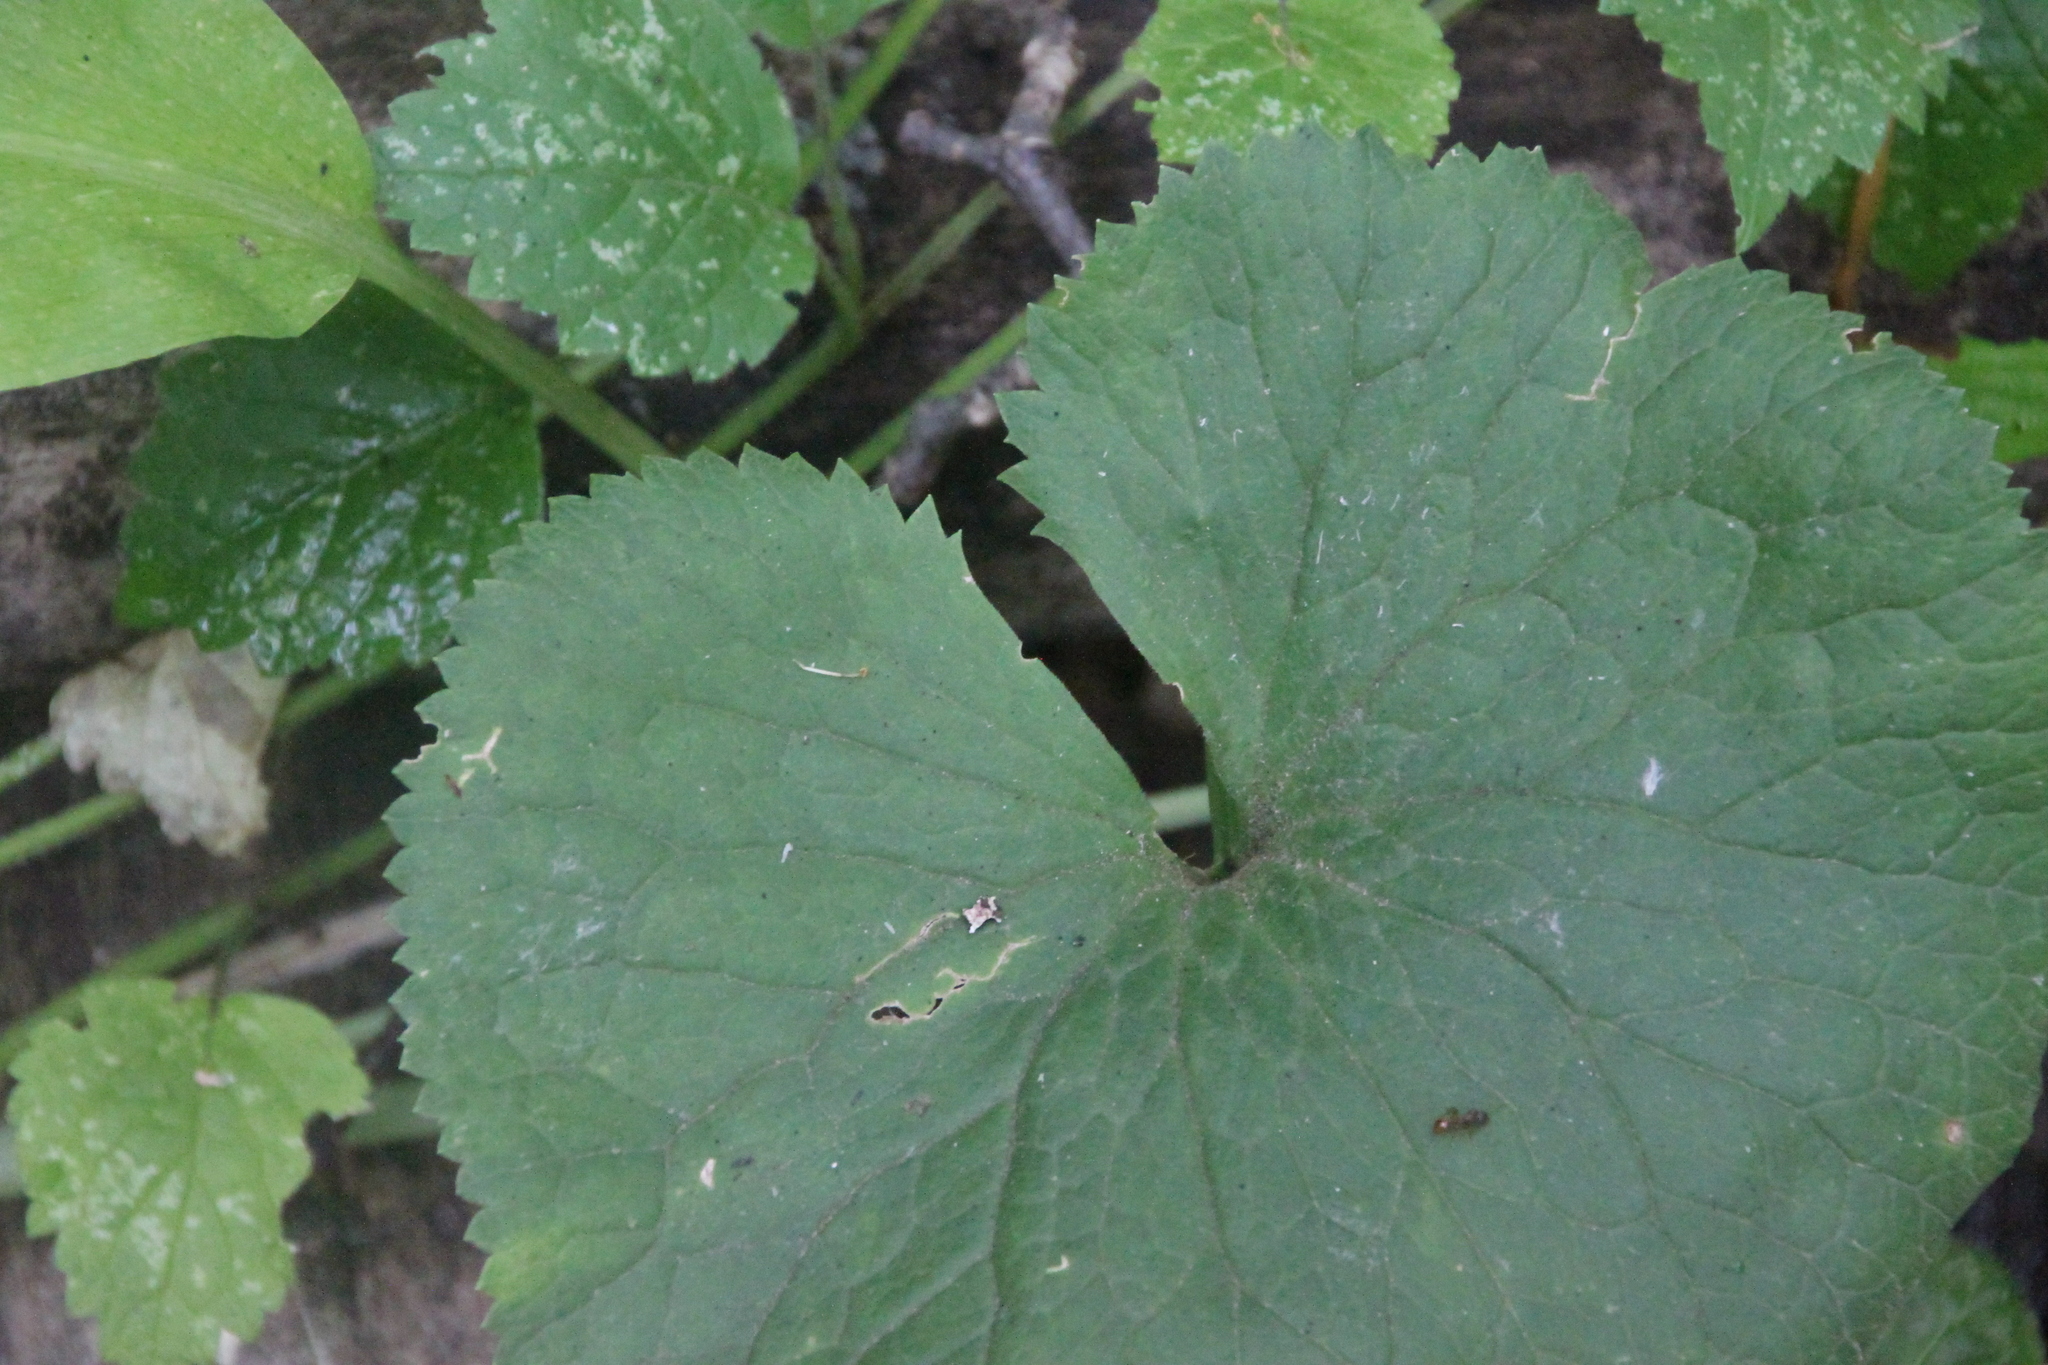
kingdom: Plantae
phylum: Tracheophyta
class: Magnoliopsida
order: Ranunculales
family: Ranunculaceae
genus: Ranunculus
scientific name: Ranunculus cassubicus
